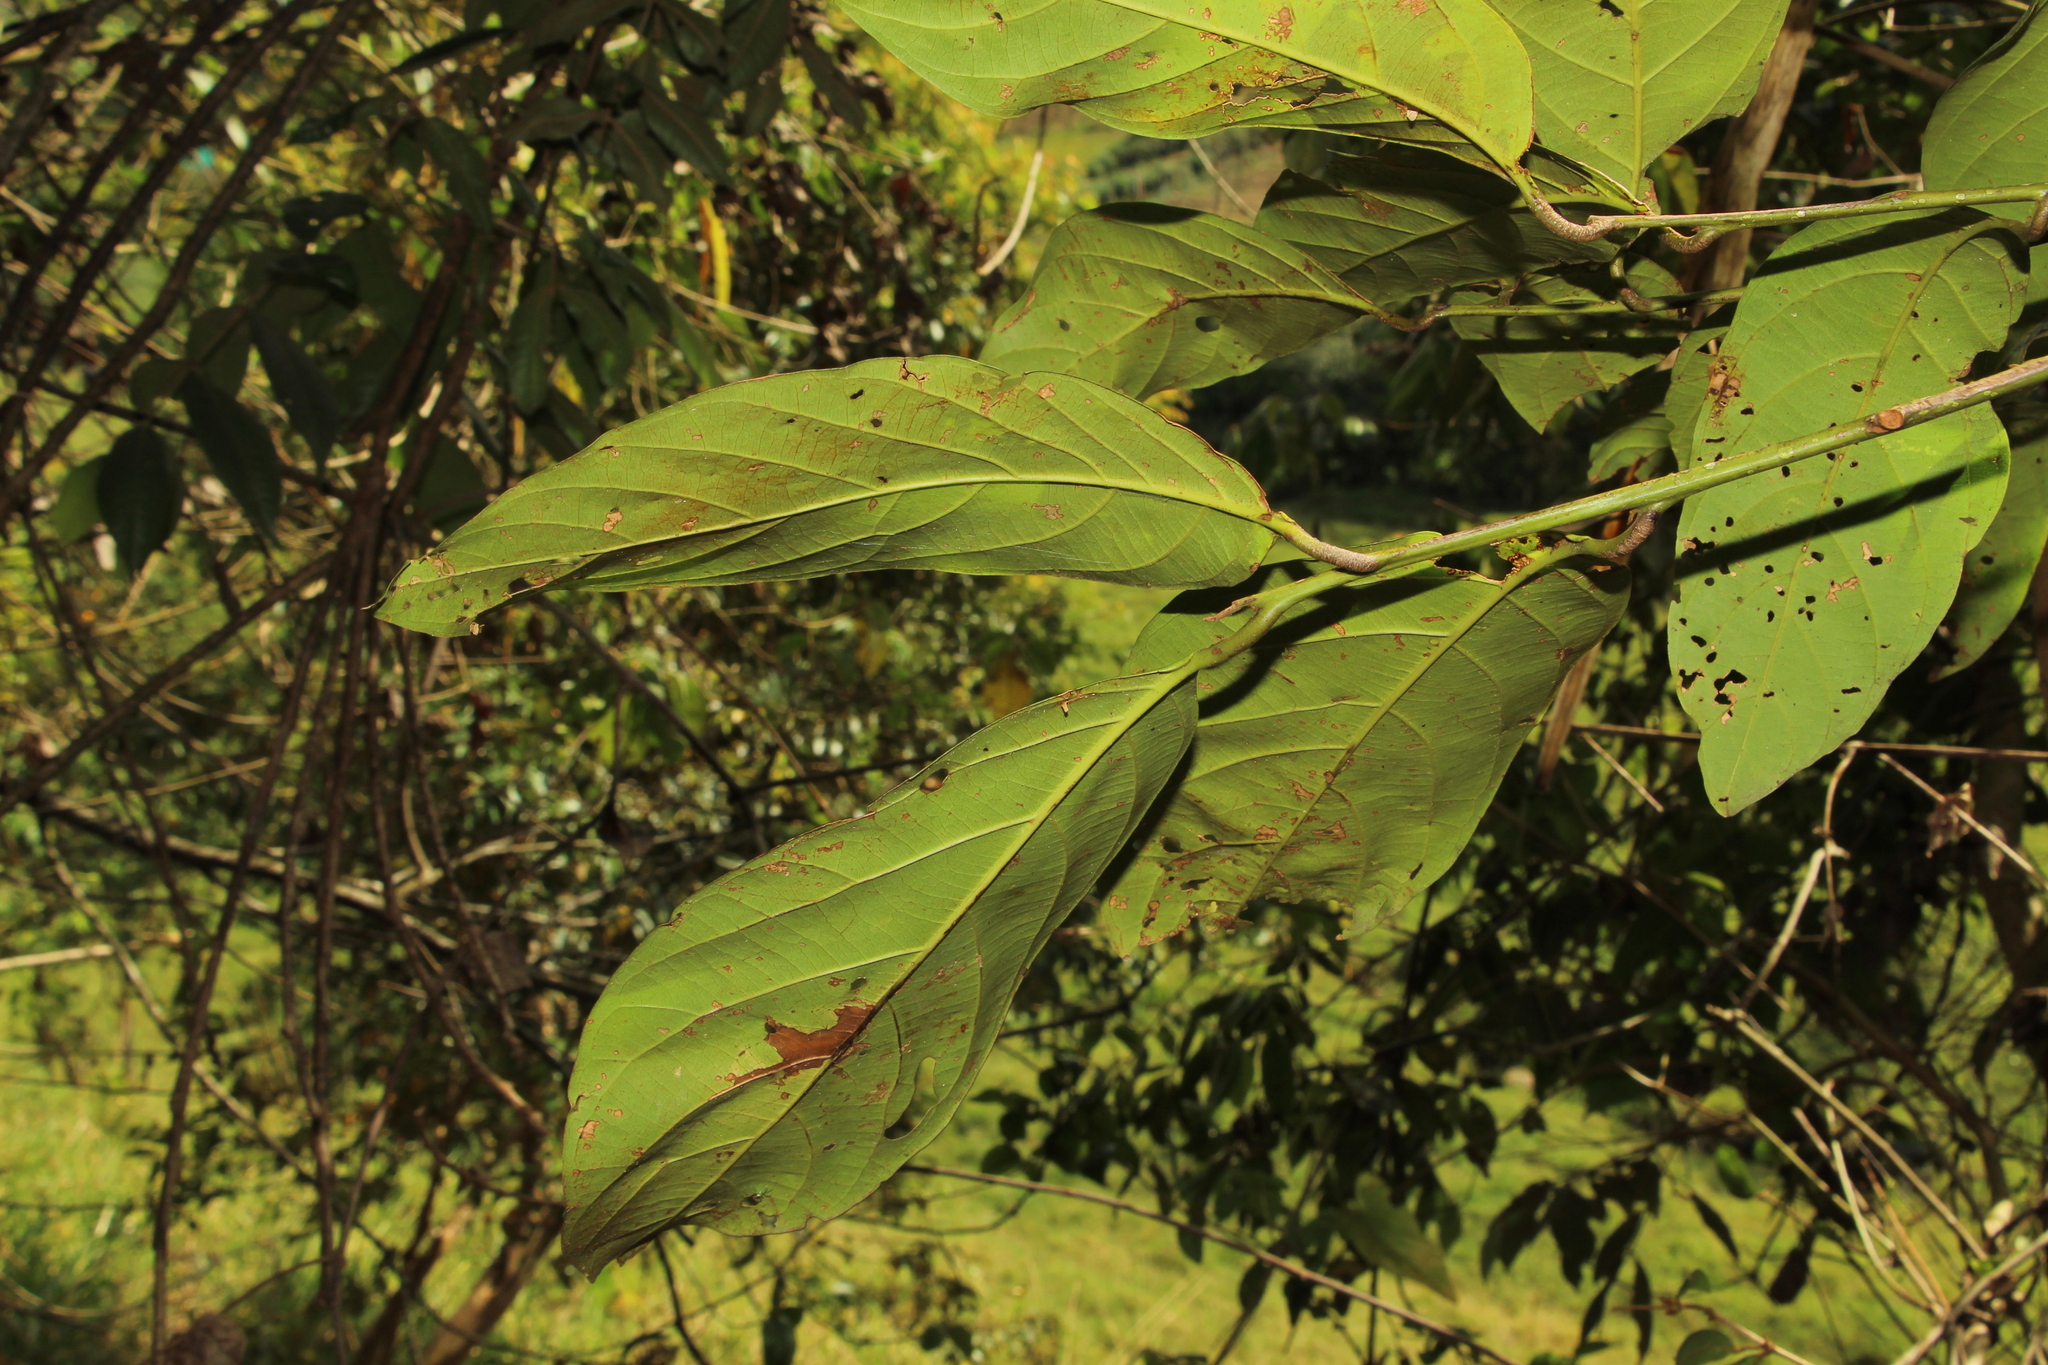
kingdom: Plantae
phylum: Tracheophyta
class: Magnoliopsida
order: Laurales
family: Lauraceae
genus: Nectandra
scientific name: Nectandra lineata
